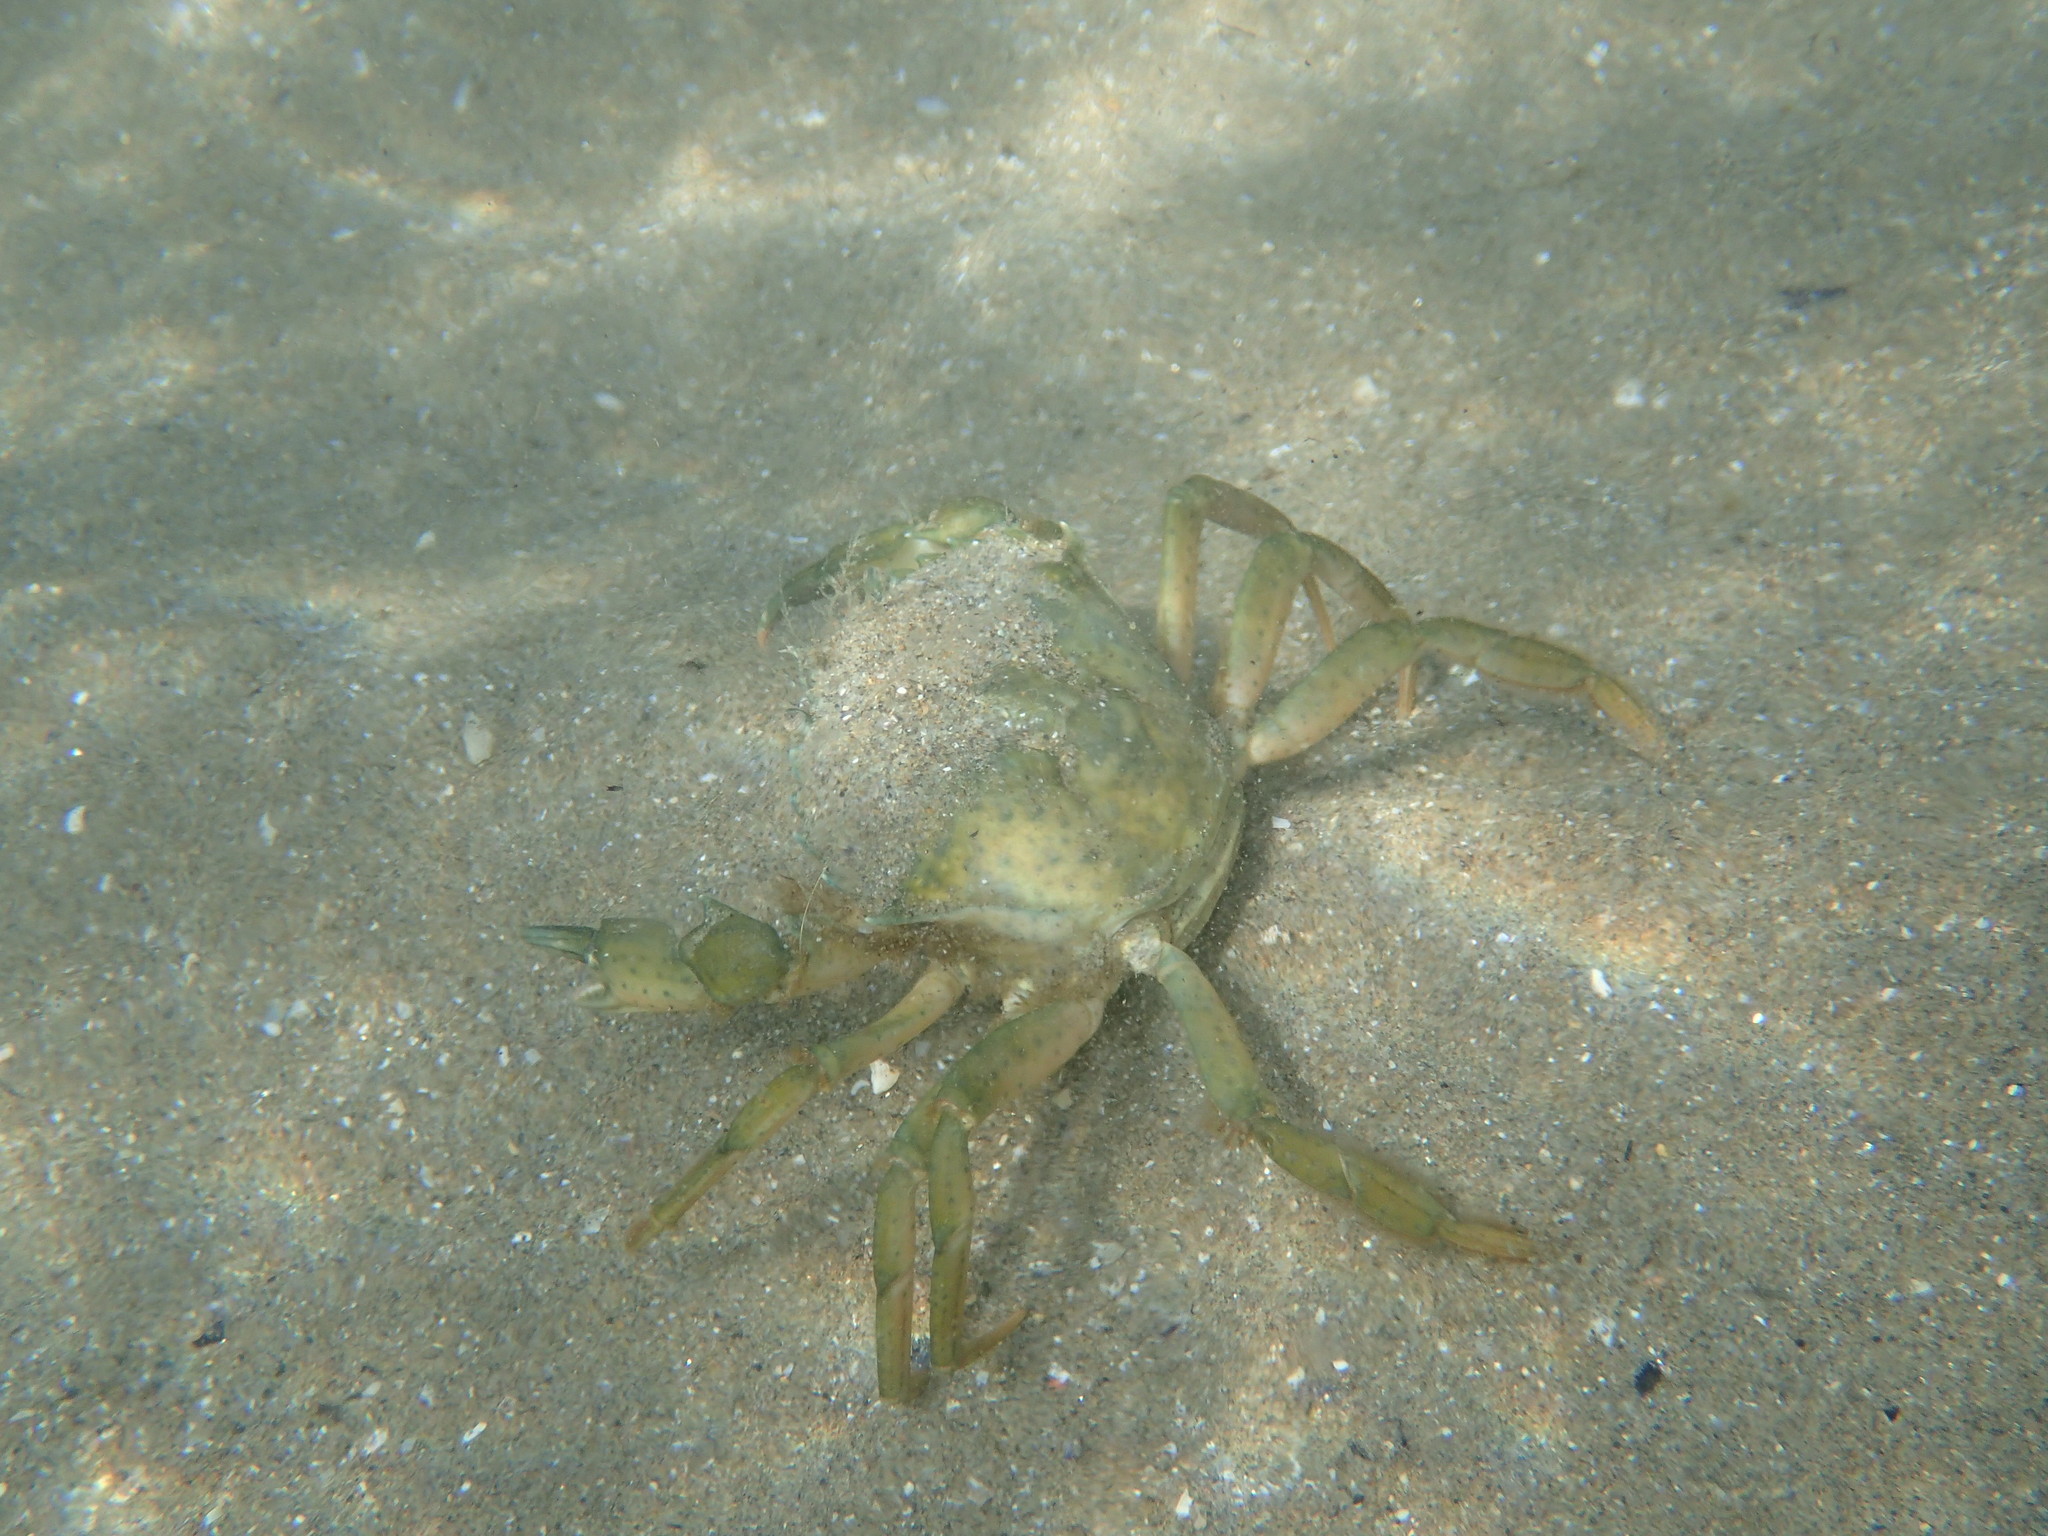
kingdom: Animalia
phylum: Arthropoda
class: Malacostraca
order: Decapoda
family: Carcinidae
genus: Carcinus
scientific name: Carcinus aestuarii
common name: Mediterranean green crab
